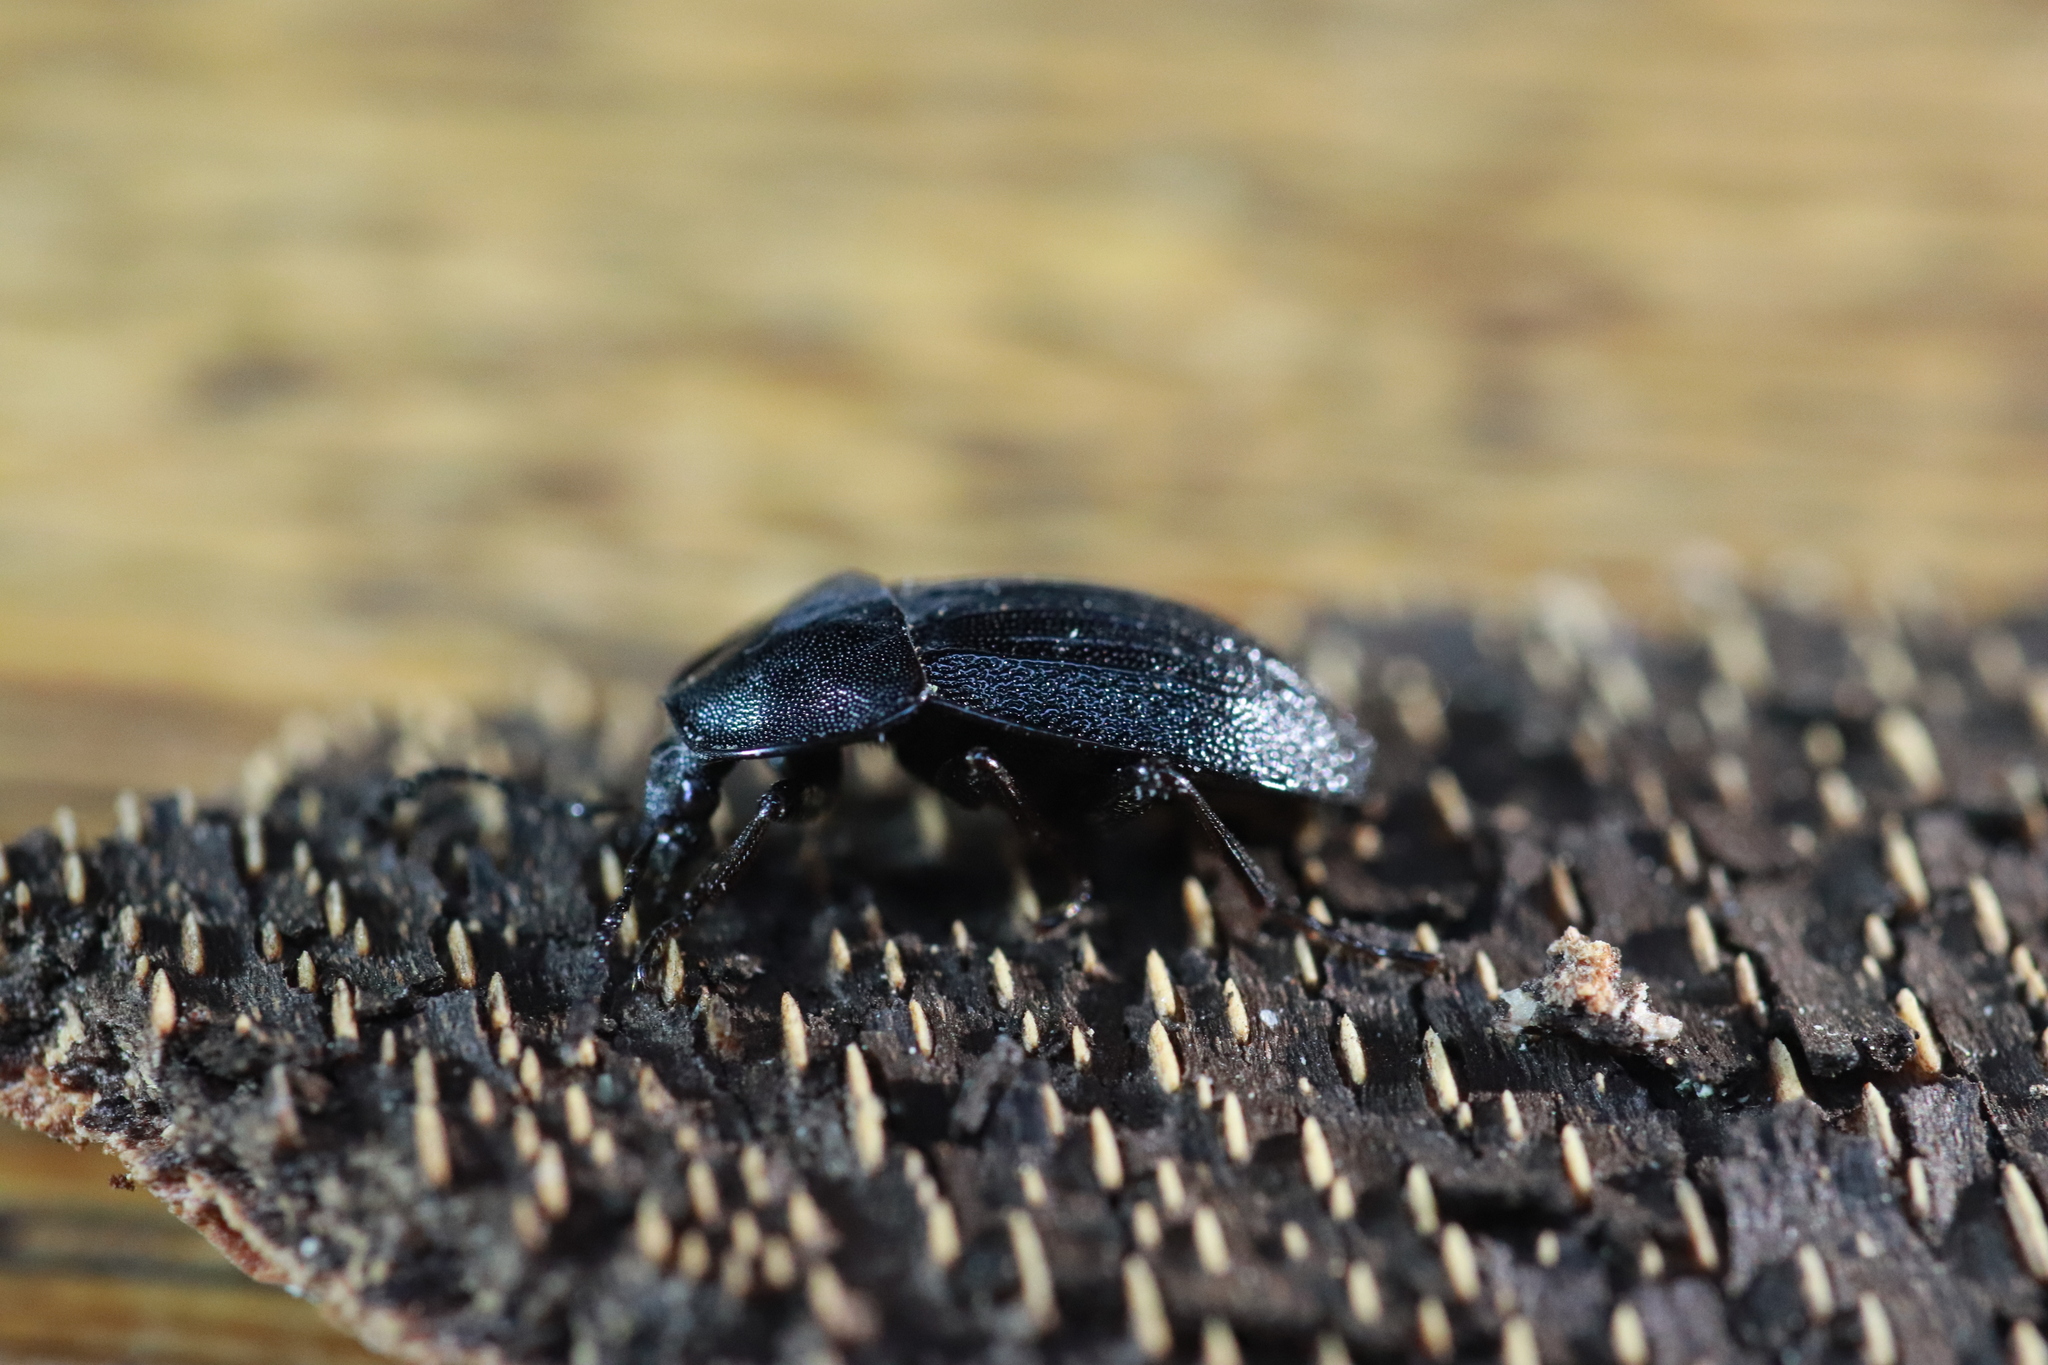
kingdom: Animalia
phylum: Arthropoda
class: Insecta
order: Coleoptera
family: Staphylinidae
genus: Silpha
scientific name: Silpha atrata
